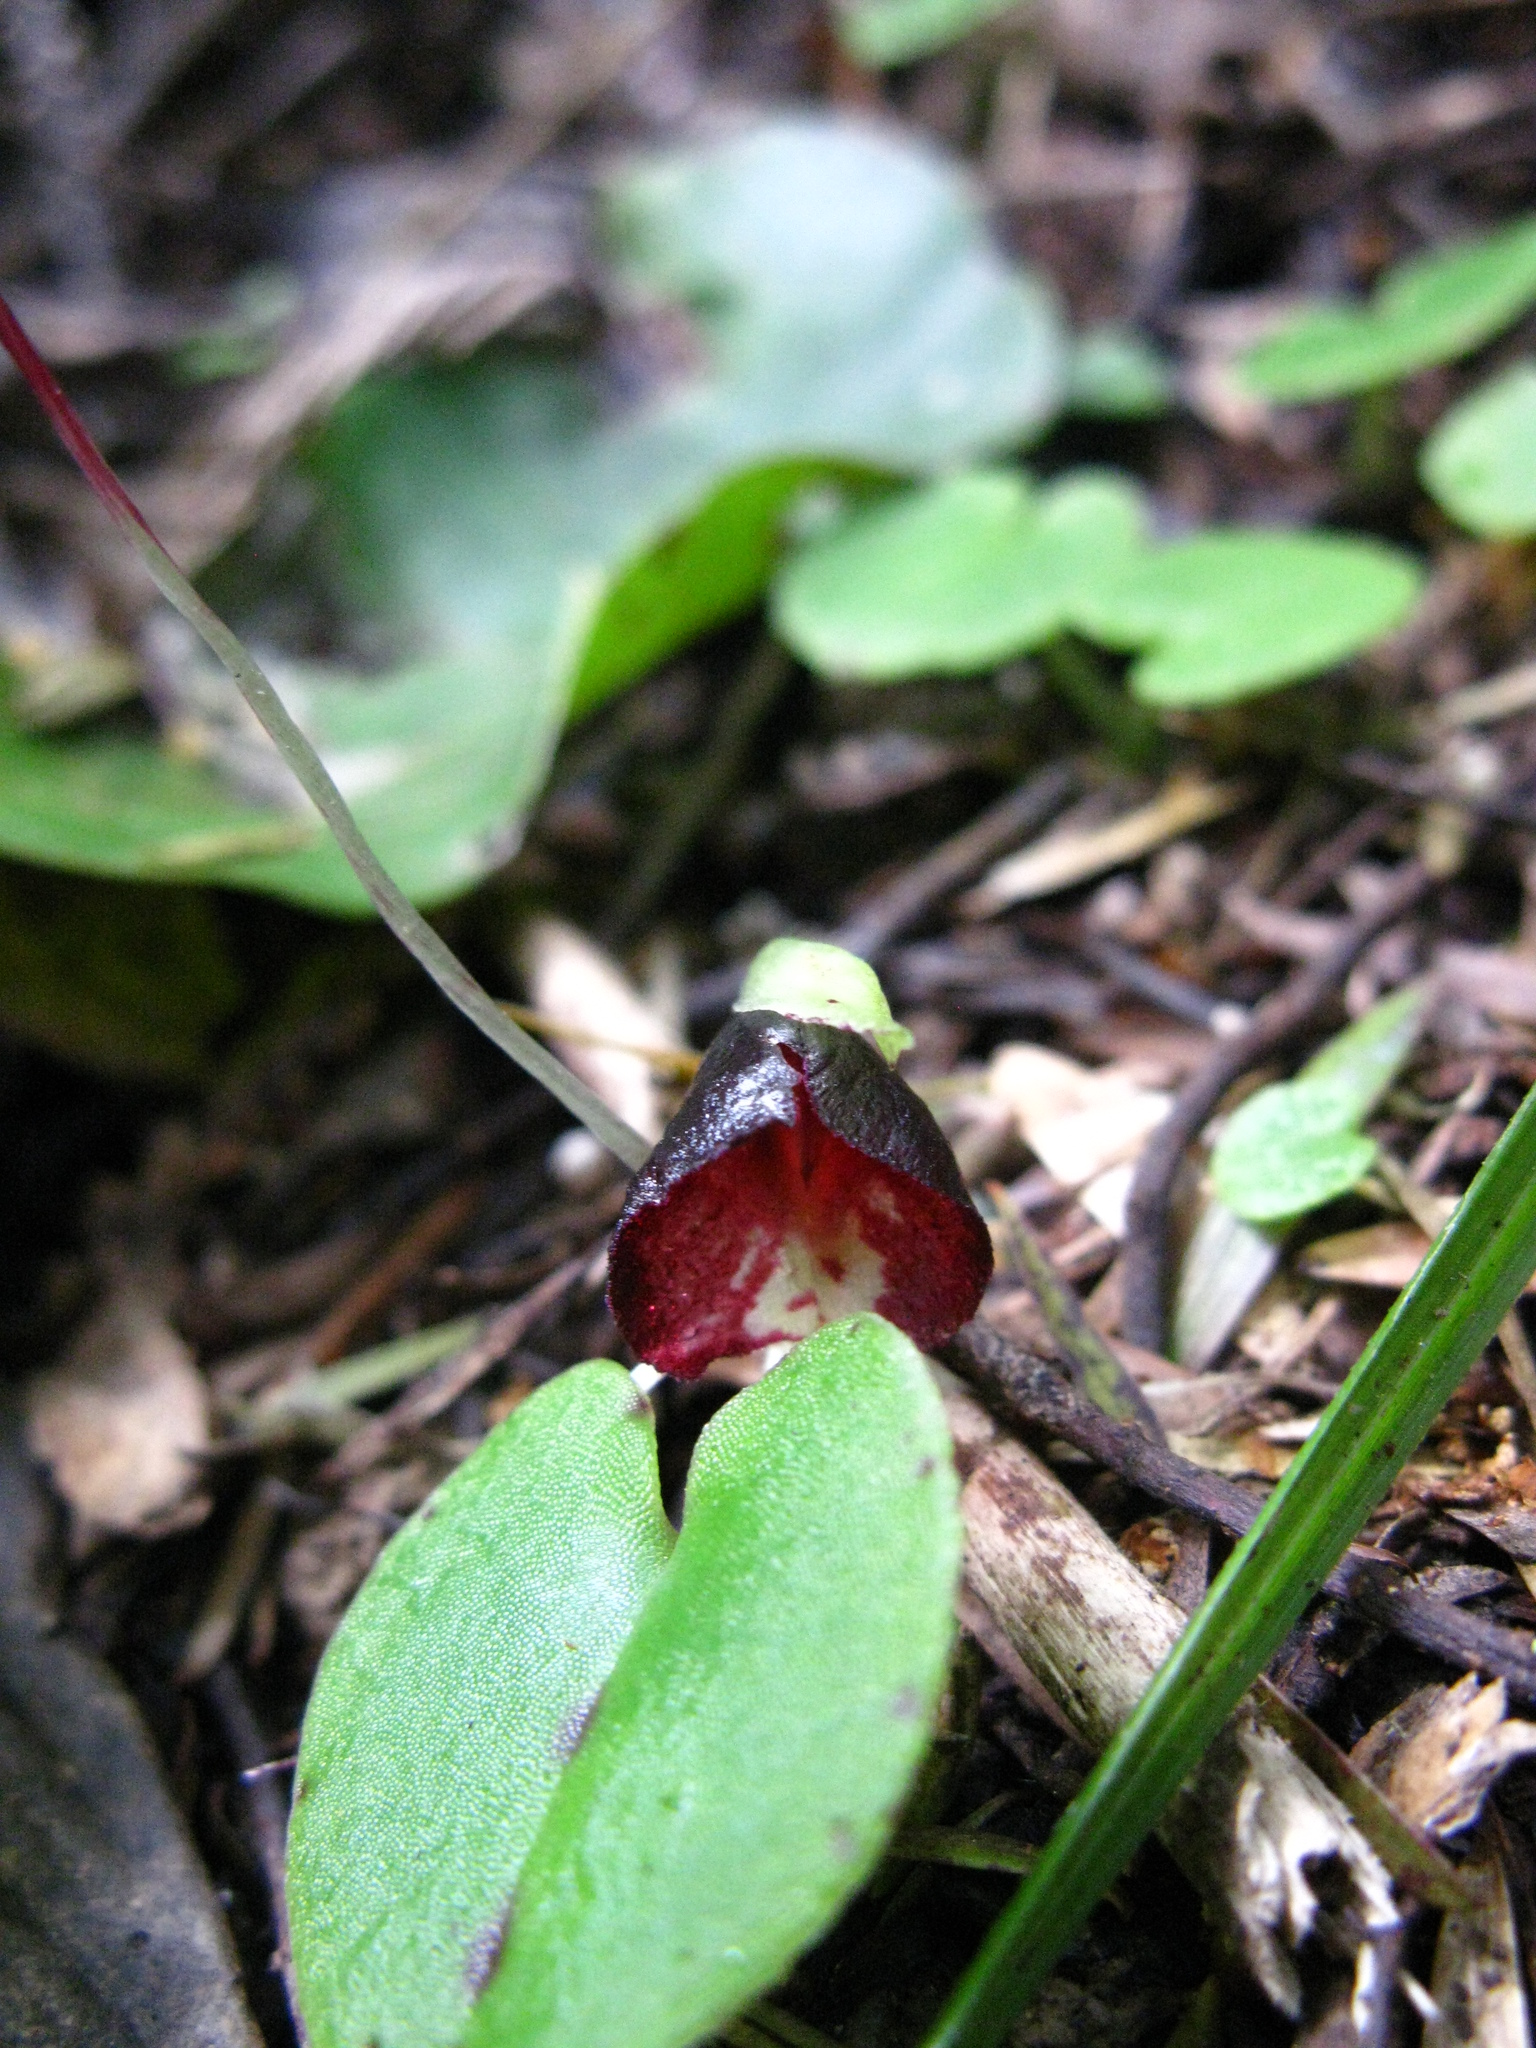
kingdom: Plantae
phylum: Tracheophyta
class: Liliopsida
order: Asparagales
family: Orchidaceae
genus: Corybas
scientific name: Corybas macranthus
